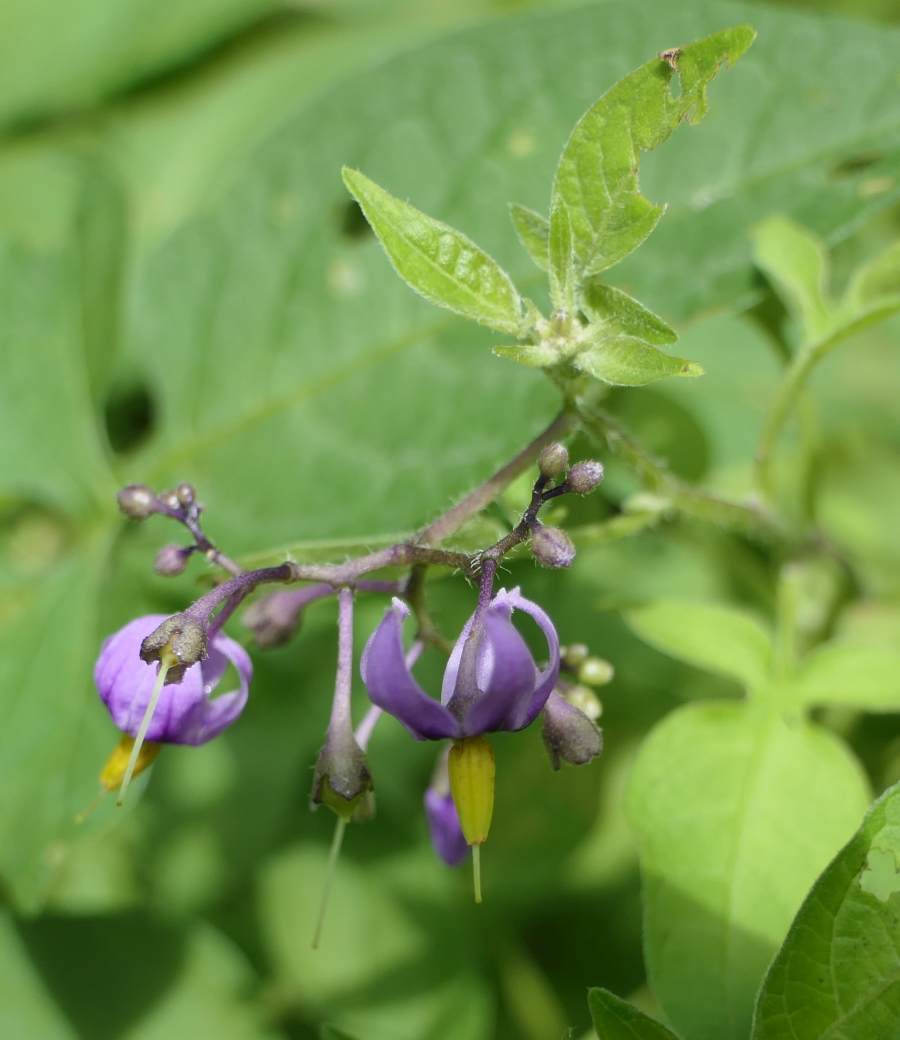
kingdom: Plantae
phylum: Tracheophyta
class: Magnoliopsida
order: Solanales
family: Solanaceae
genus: Solanum
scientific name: Solanum dulcamara
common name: Climbing nightshade
